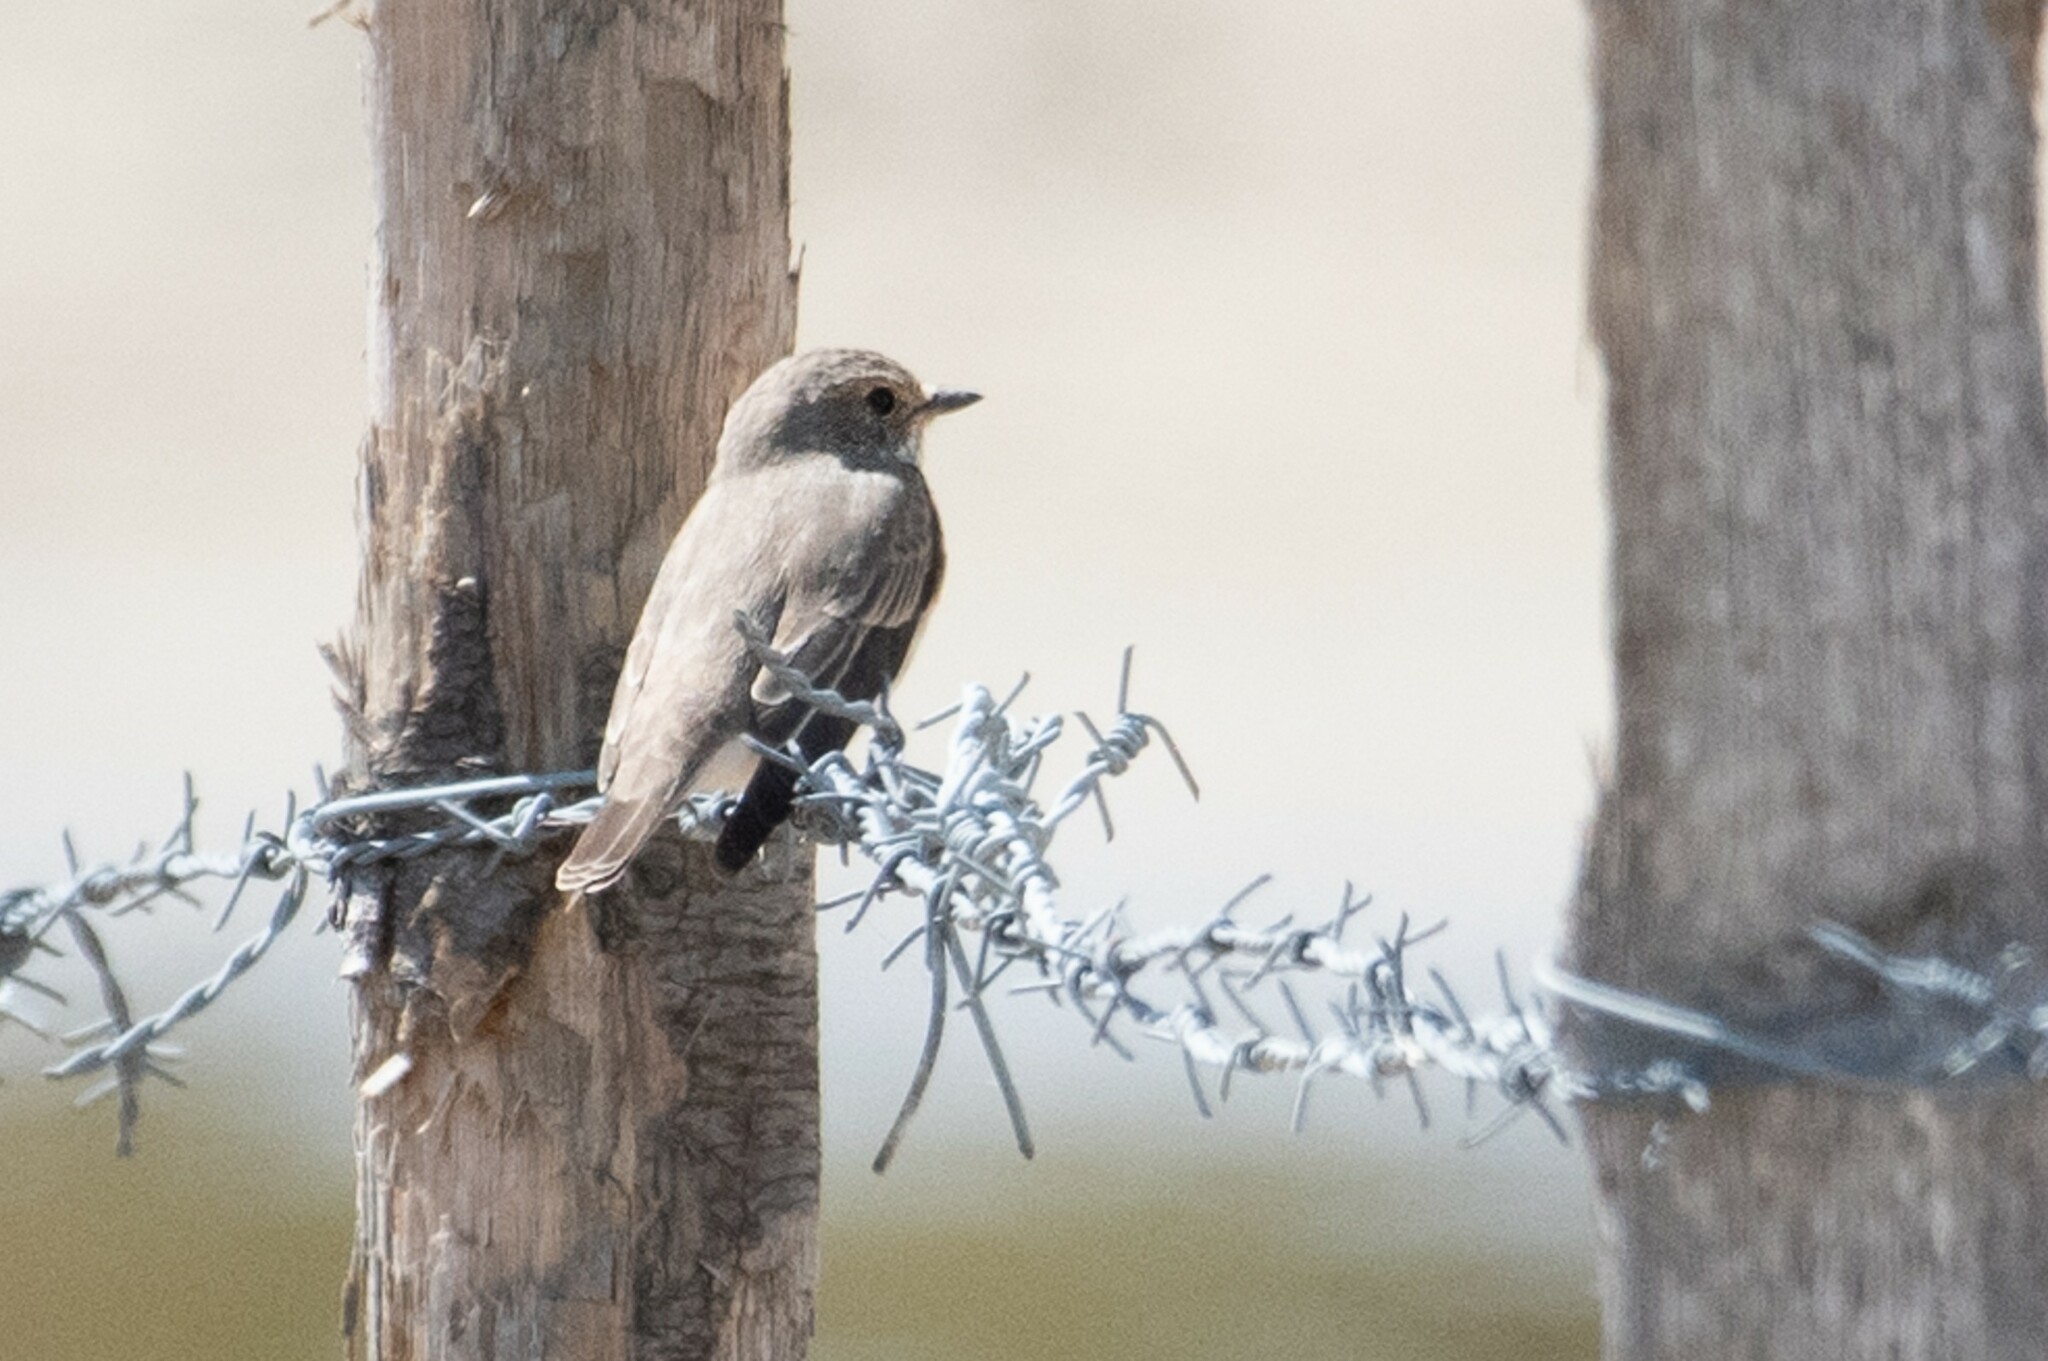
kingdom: Animalia
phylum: Chordata
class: Aves
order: Passeriformes
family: Muscicapidae
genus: Muscicapa
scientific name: Muscicapa striata
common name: Spotted flycatcher
